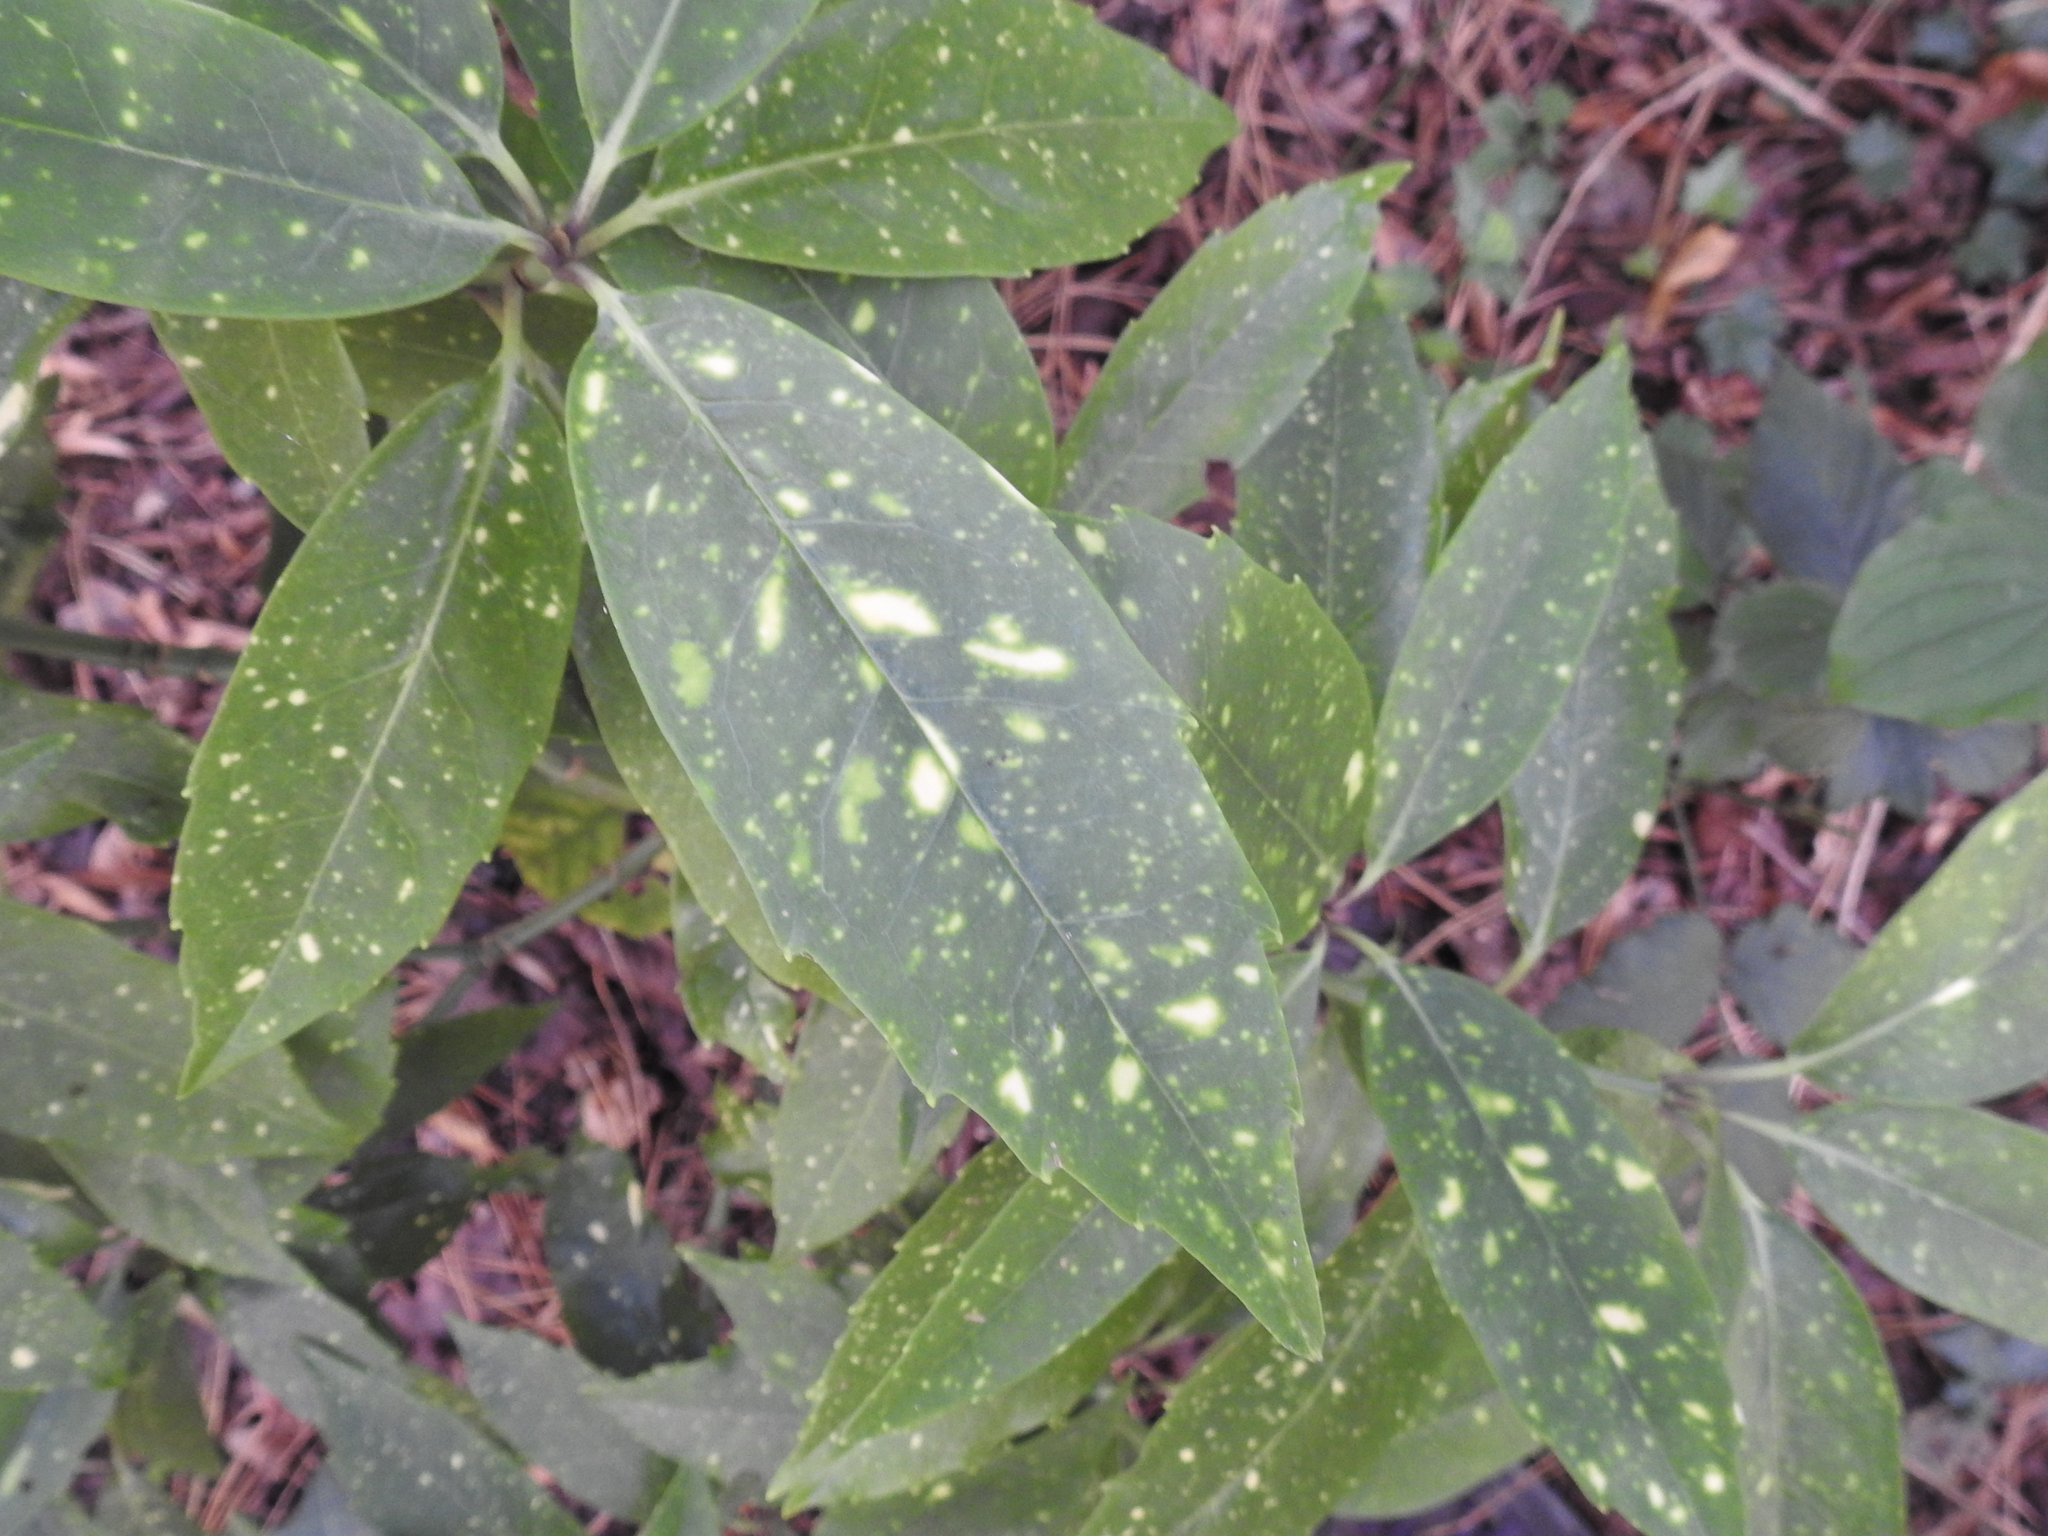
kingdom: Plantae
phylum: Tracheophyta
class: Magnoliopsida
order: Garryales
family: Garryaceae
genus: Aucuba
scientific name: Aucuba japonica
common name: Spotted-laurel
